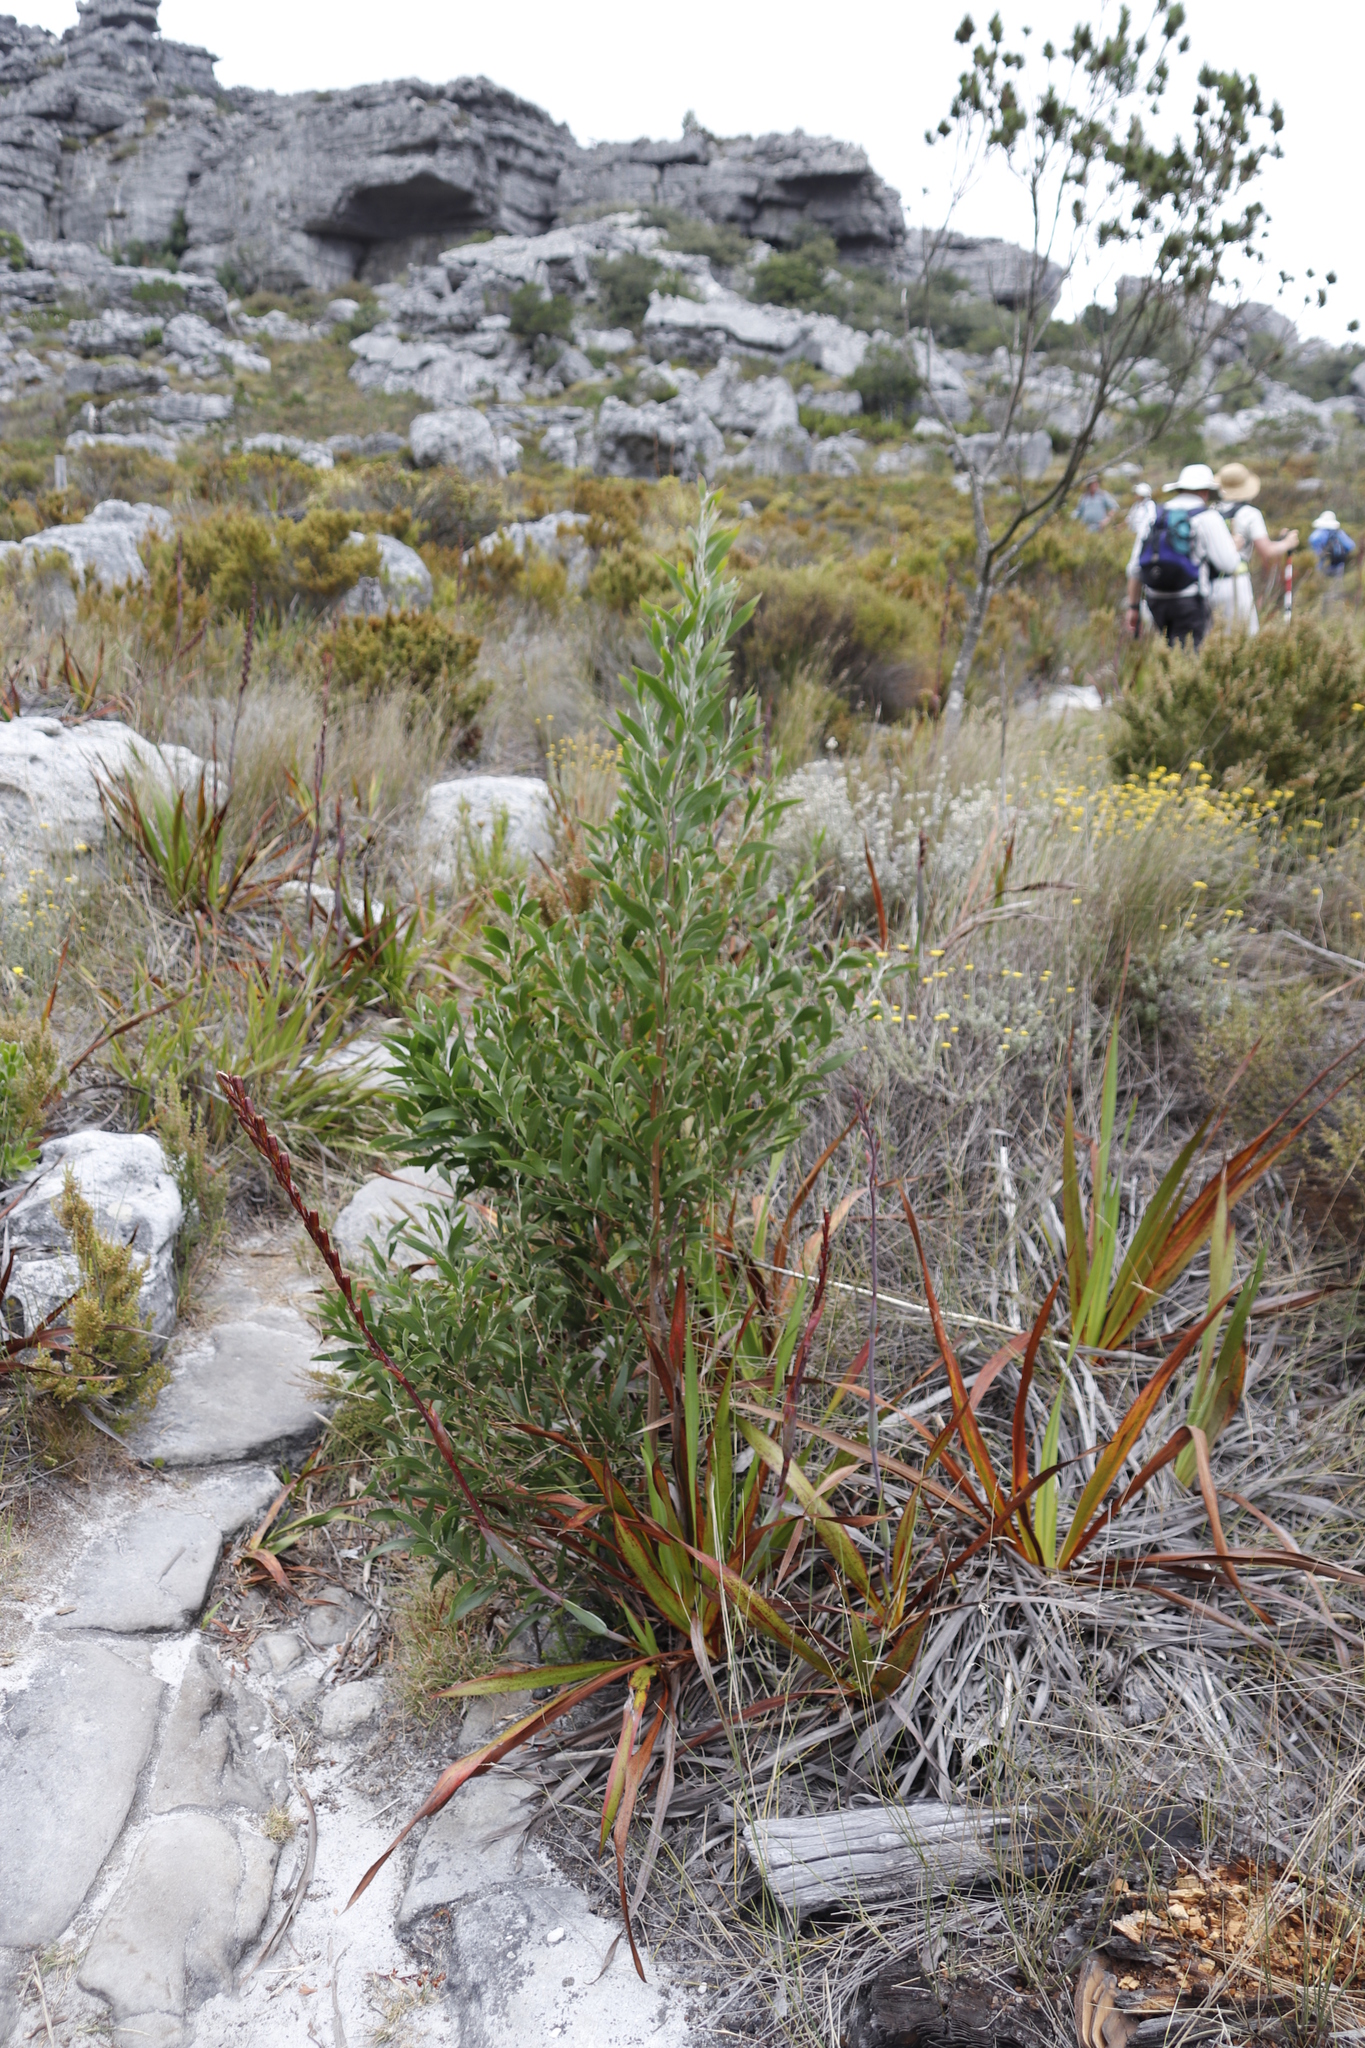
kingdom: Plantae
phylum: Tracheophyta
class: Magnoliopsida
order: Fabales
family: Fabaceae
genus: Acacia
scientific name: Acacia melanoxylon
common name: Blackwood
